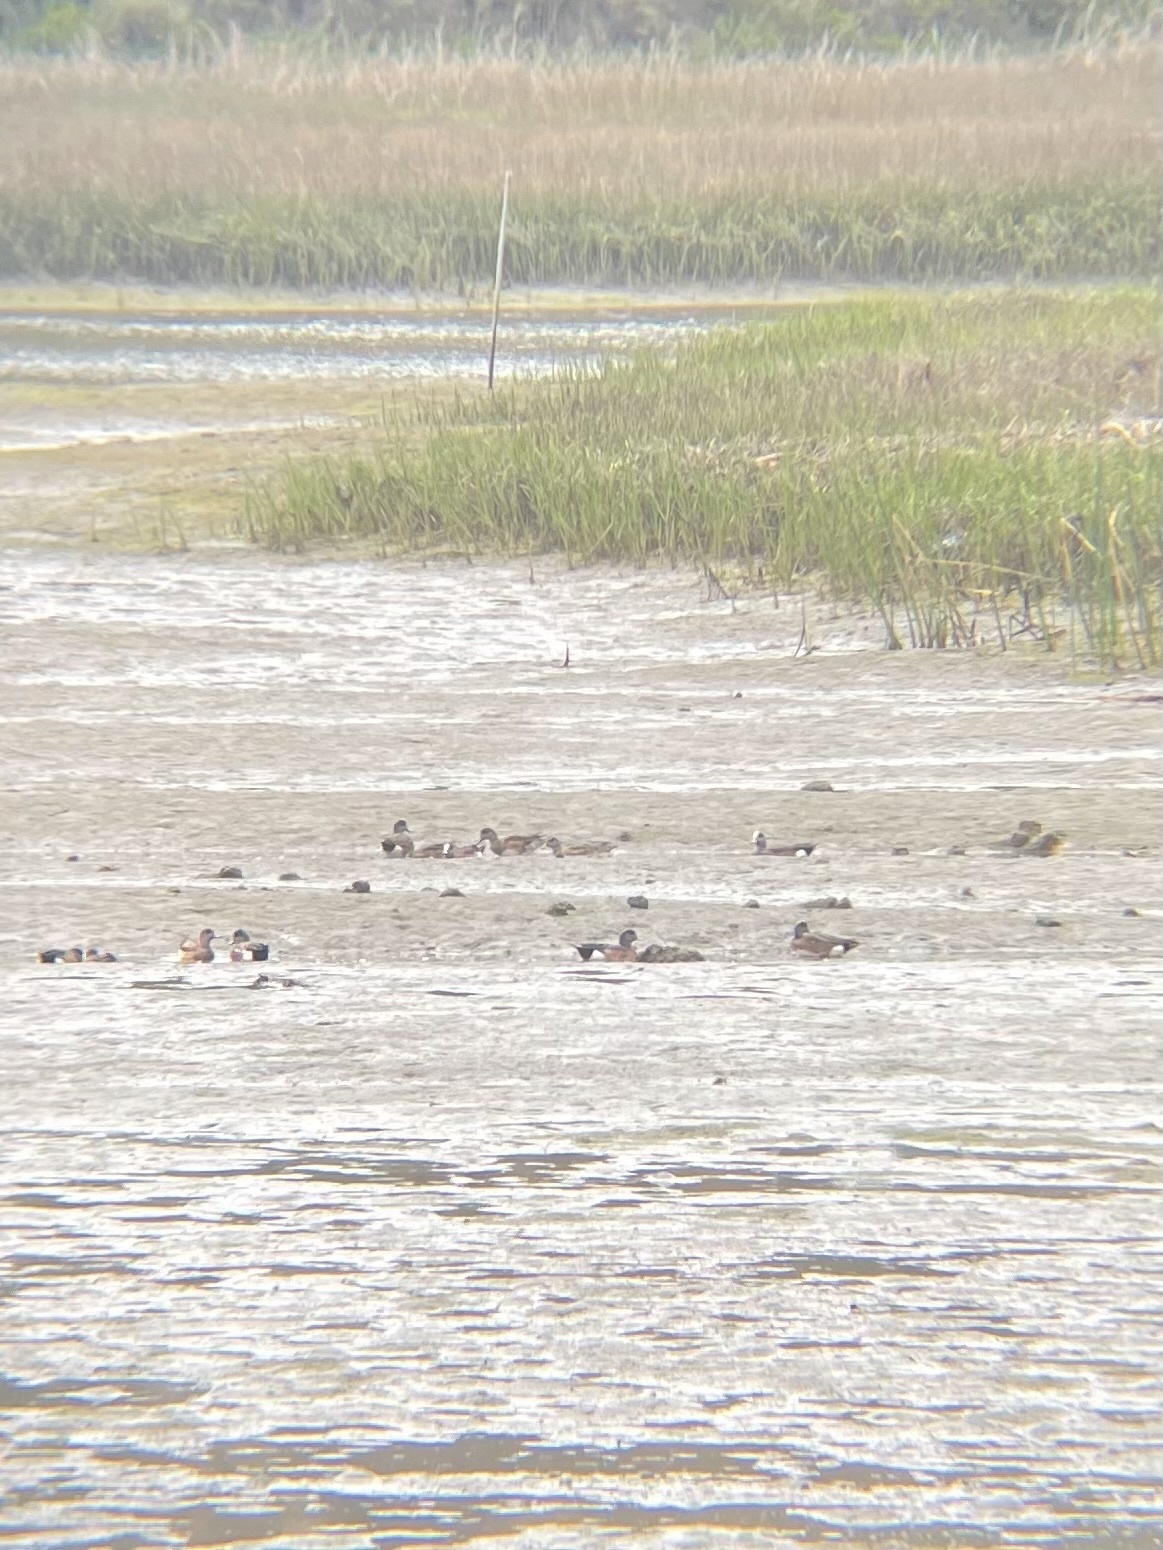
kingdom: Animalia
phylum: Chordata
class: Aves
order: Anseriformes
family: Anatidae
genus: Mareca
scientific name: Mareca americana
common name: American wigeon
